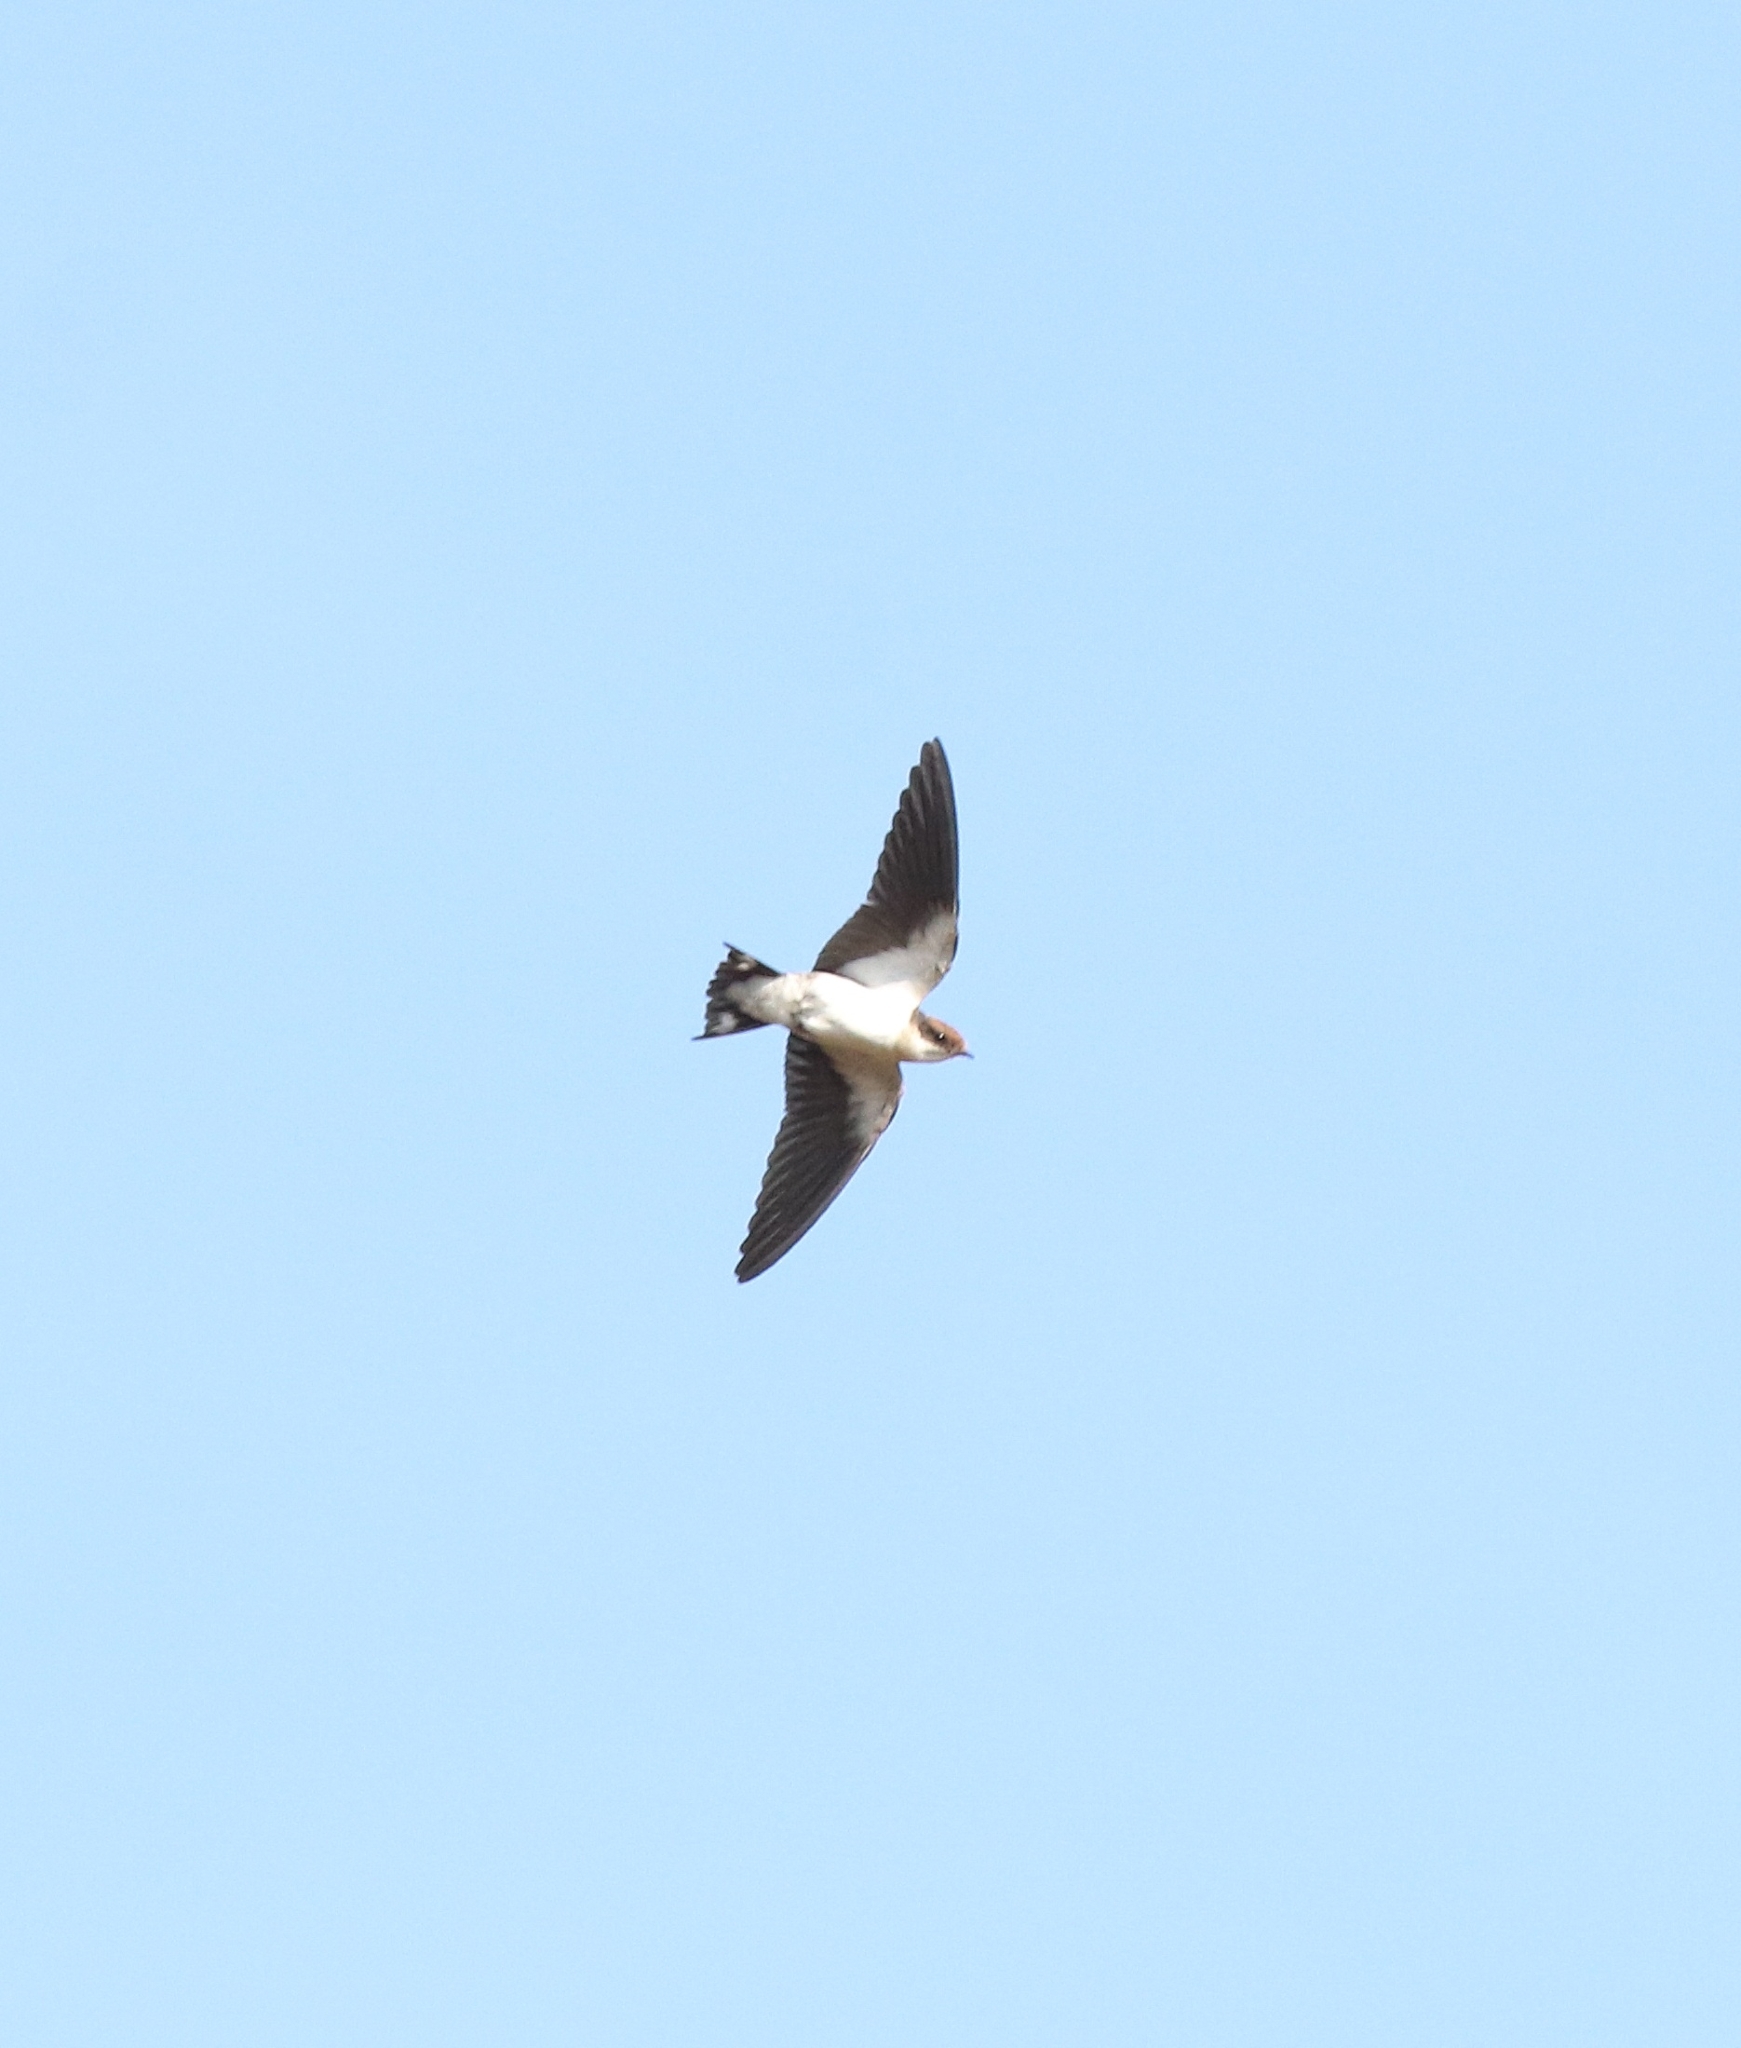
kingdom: Animalia
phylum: Chordata
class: Aves
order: Passeriformes
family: Hirundinidae
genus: Hirundo
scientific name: Hirundo smithii
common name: Wire-tailed swallow
